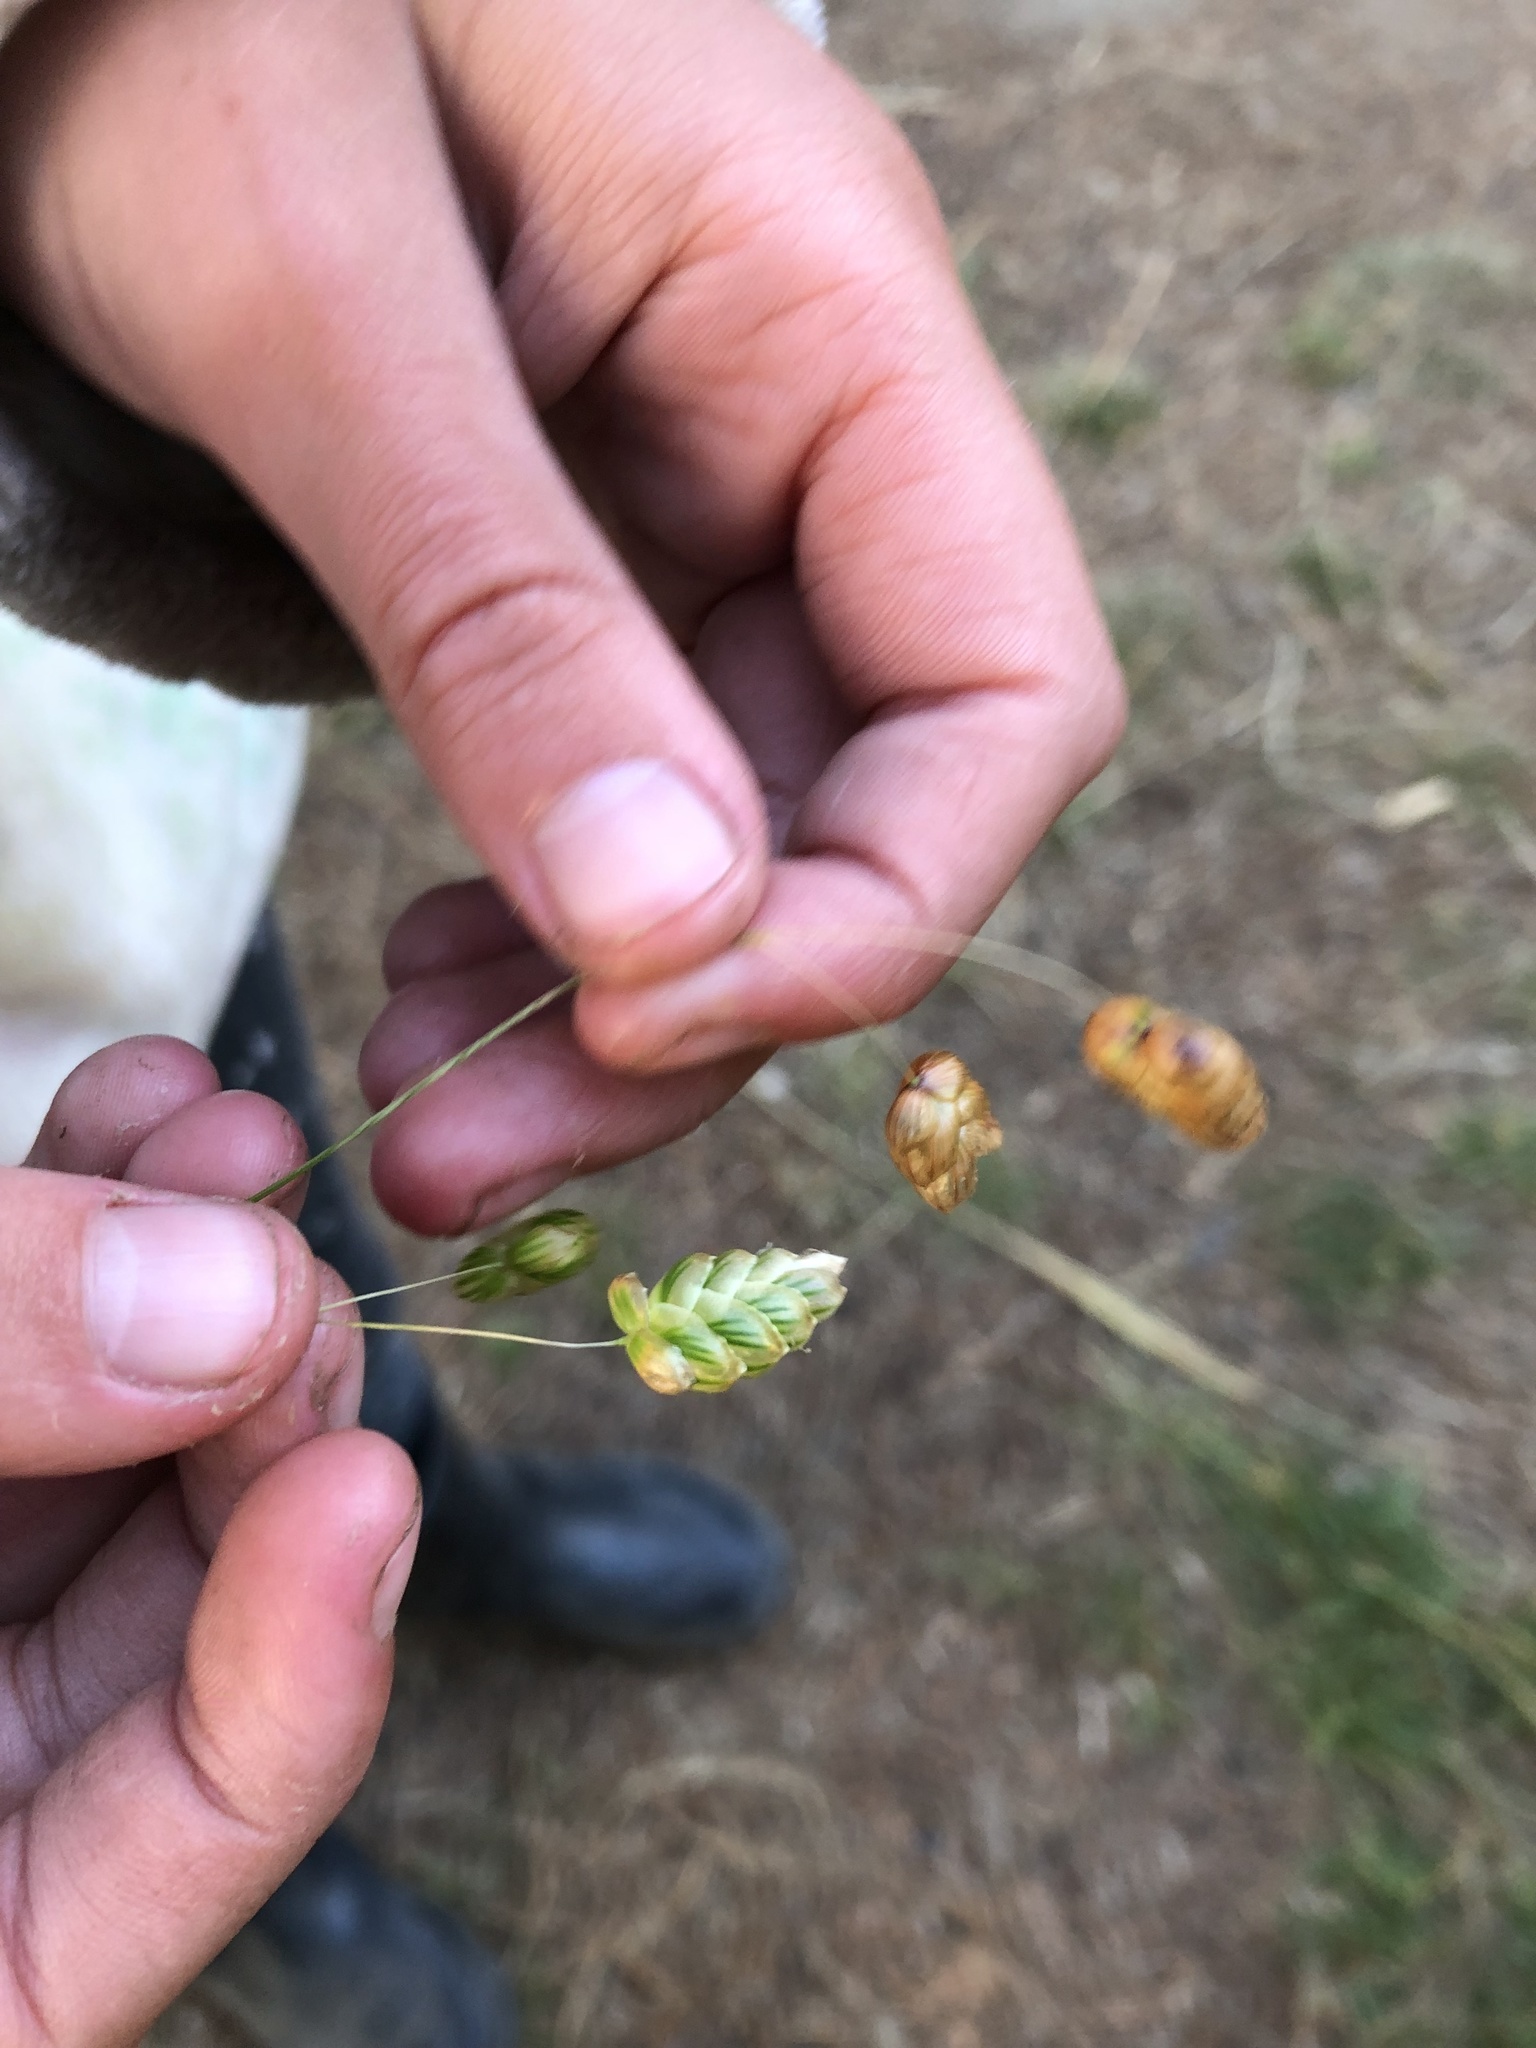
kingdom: Plantae
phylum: Tracheophyta
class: Liliopsida
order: Poales
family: Poaceae
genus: Briza
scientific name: Briza maxima
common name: Big quakinggrass
